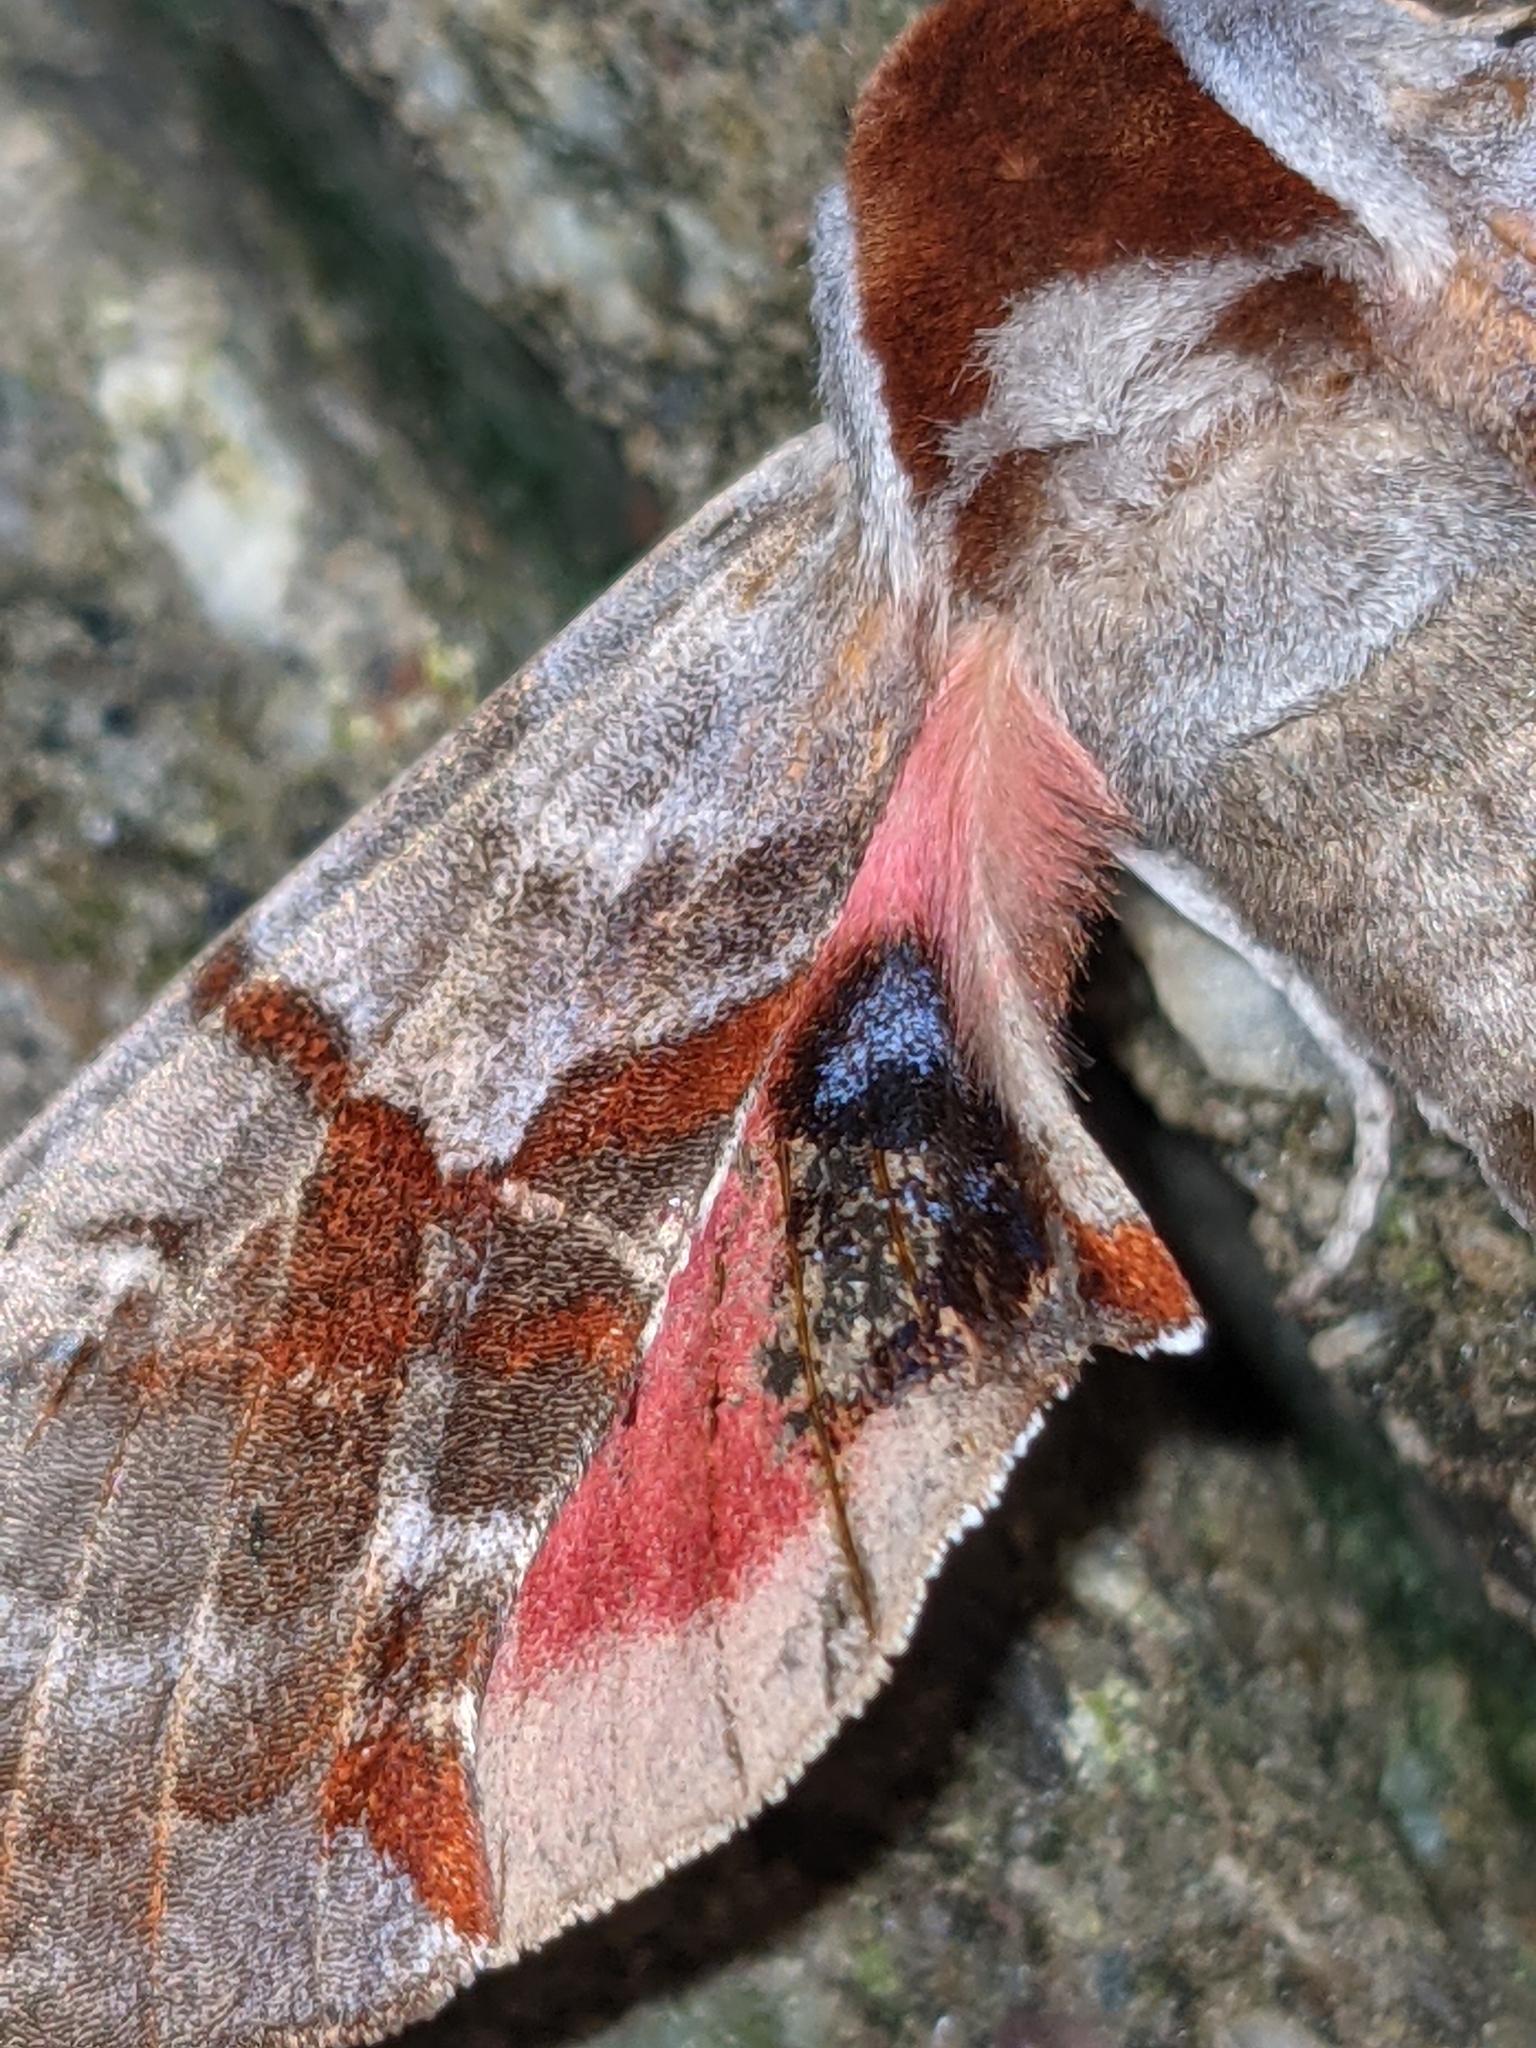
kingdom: Animalia
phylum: Arthropoda
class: Insecta
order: Lepidoptera
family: Sphingidae
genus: Smerinthus
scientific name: Smerinthus jamaicensis
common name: Twin spotted sphinx
